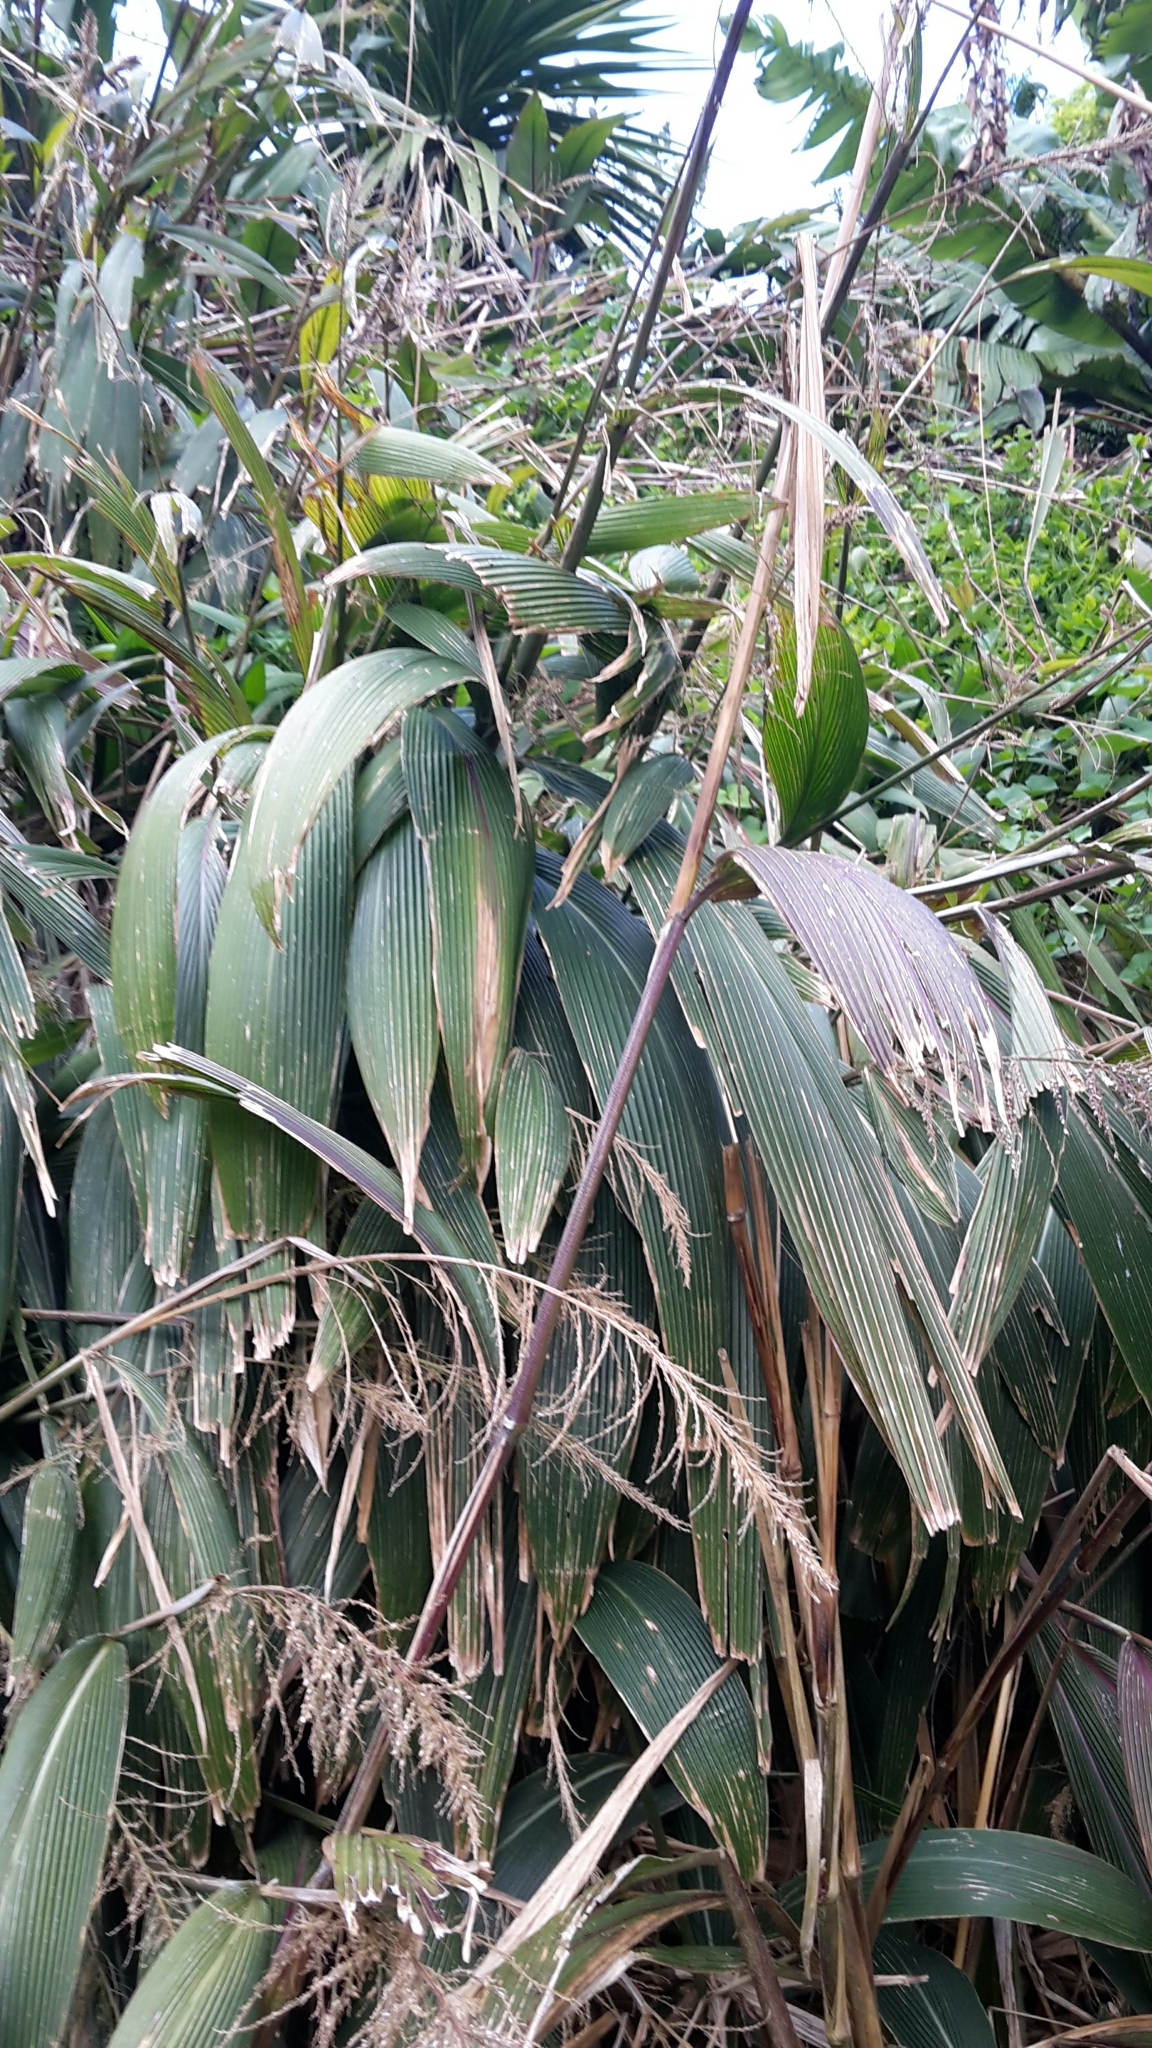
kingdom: Plantae
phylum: Tracheophyta
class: Liliopsida
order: Poales
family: Poaceae
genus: Setaria
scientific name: Setaria palmifolia
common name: Broadleaved bristlegrass
